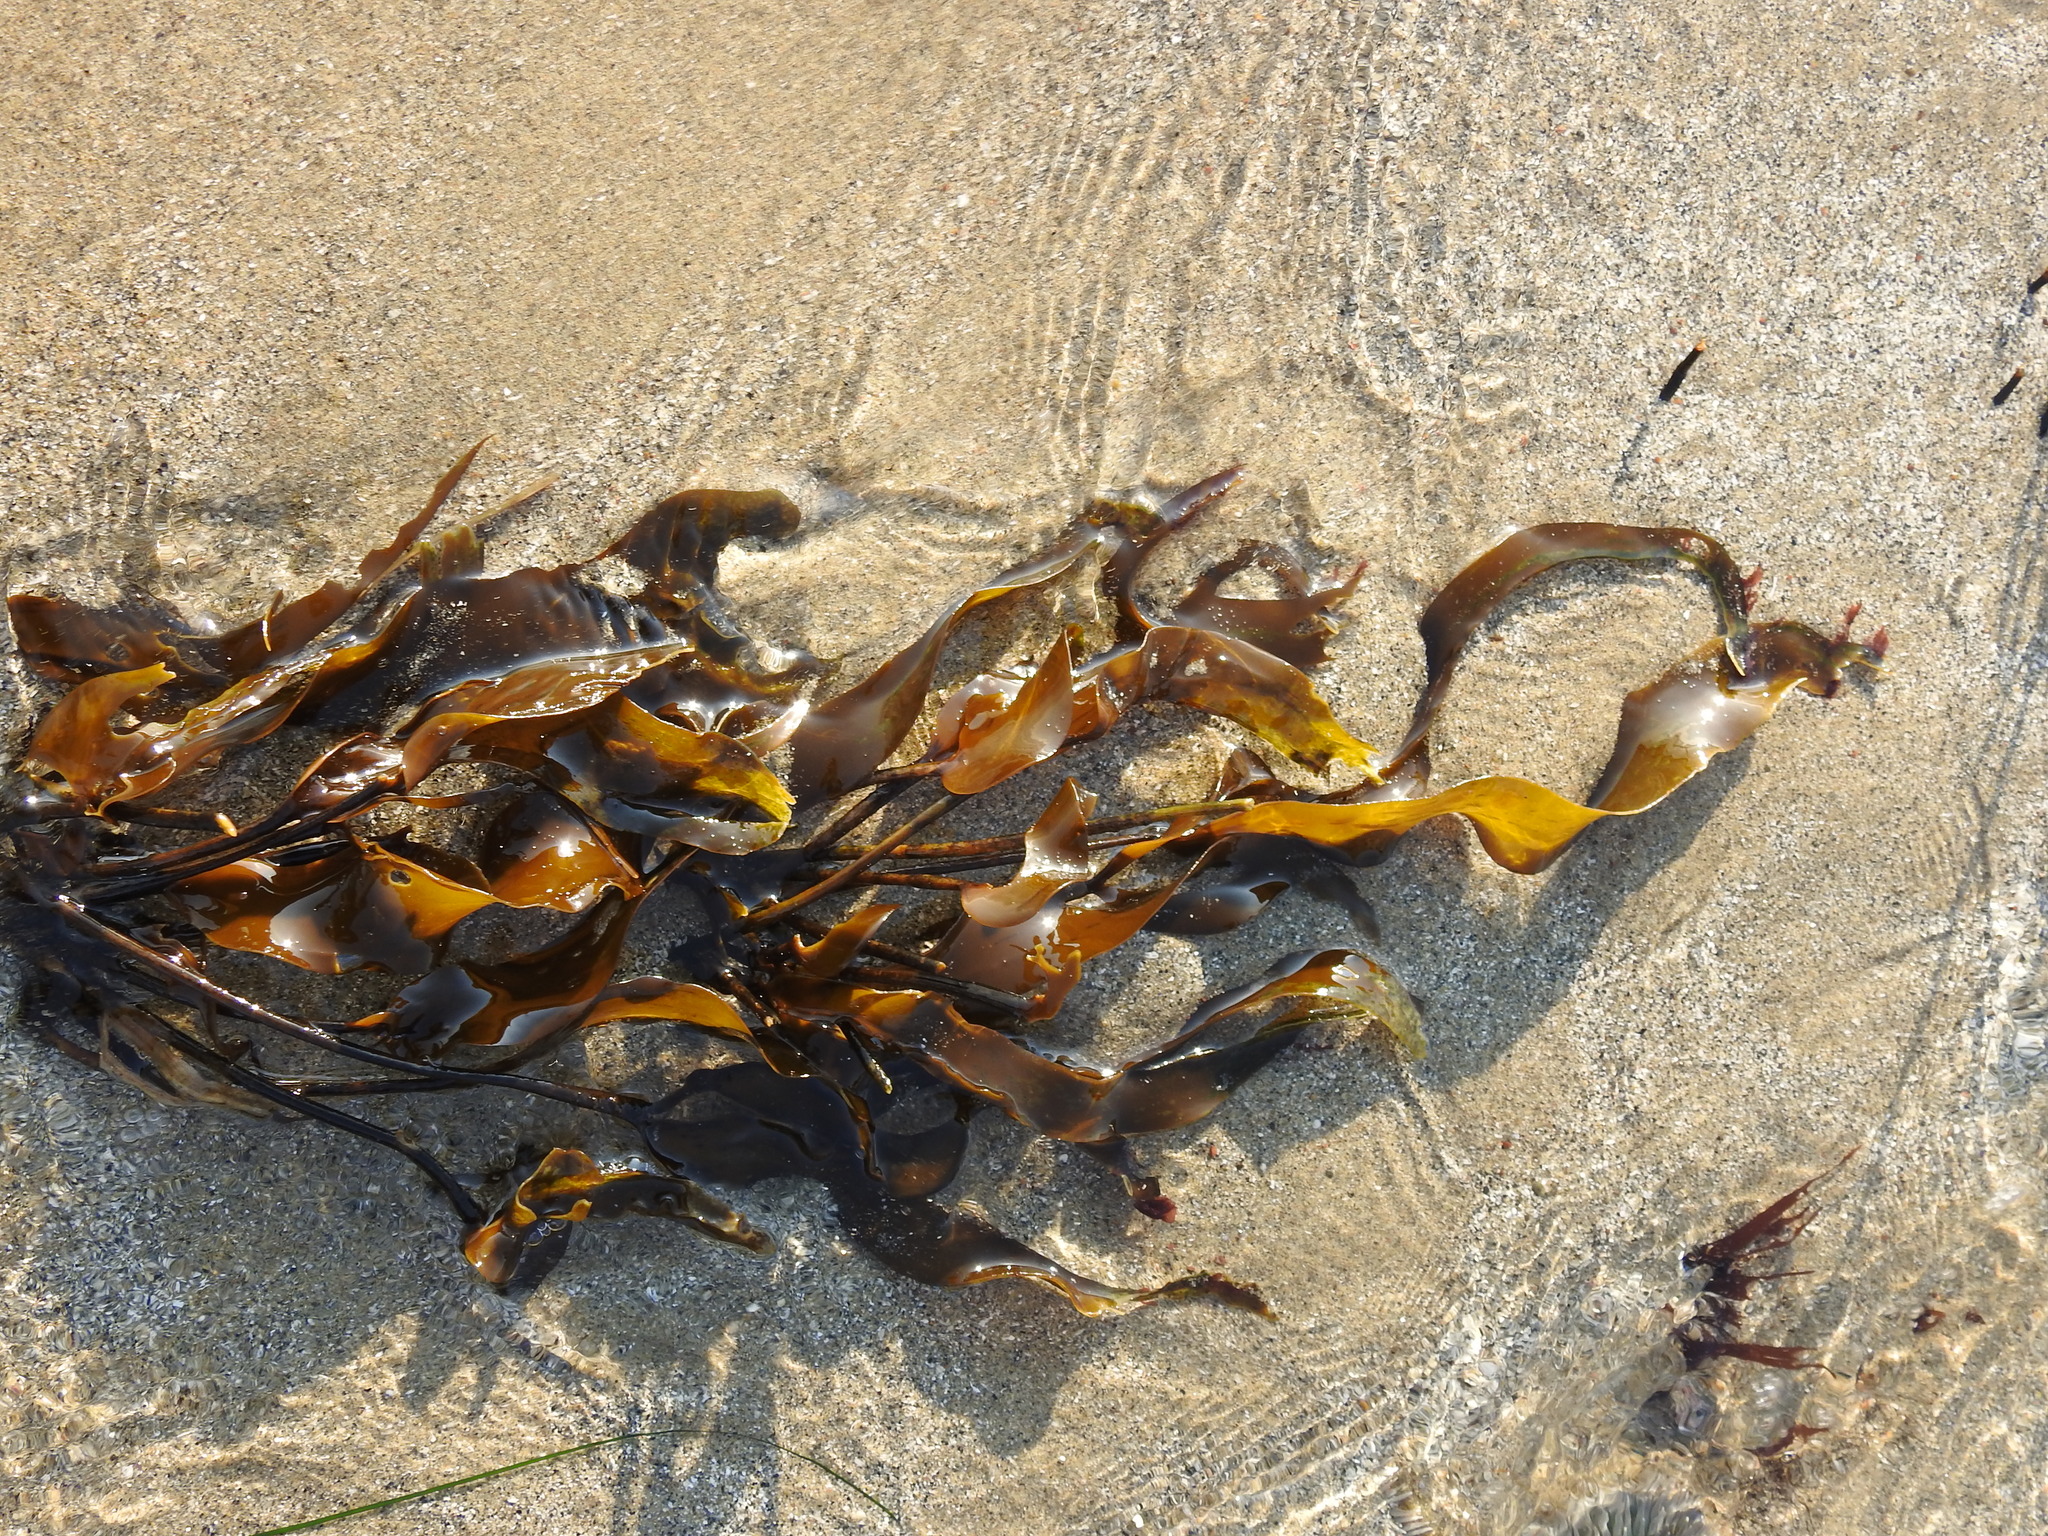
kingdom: Chromista
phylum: Ochrophyta
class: Phaeophyceae
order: Laminariales
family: Laminariaceae
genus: Macrocystis
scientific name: Macrocystis pyrifera
